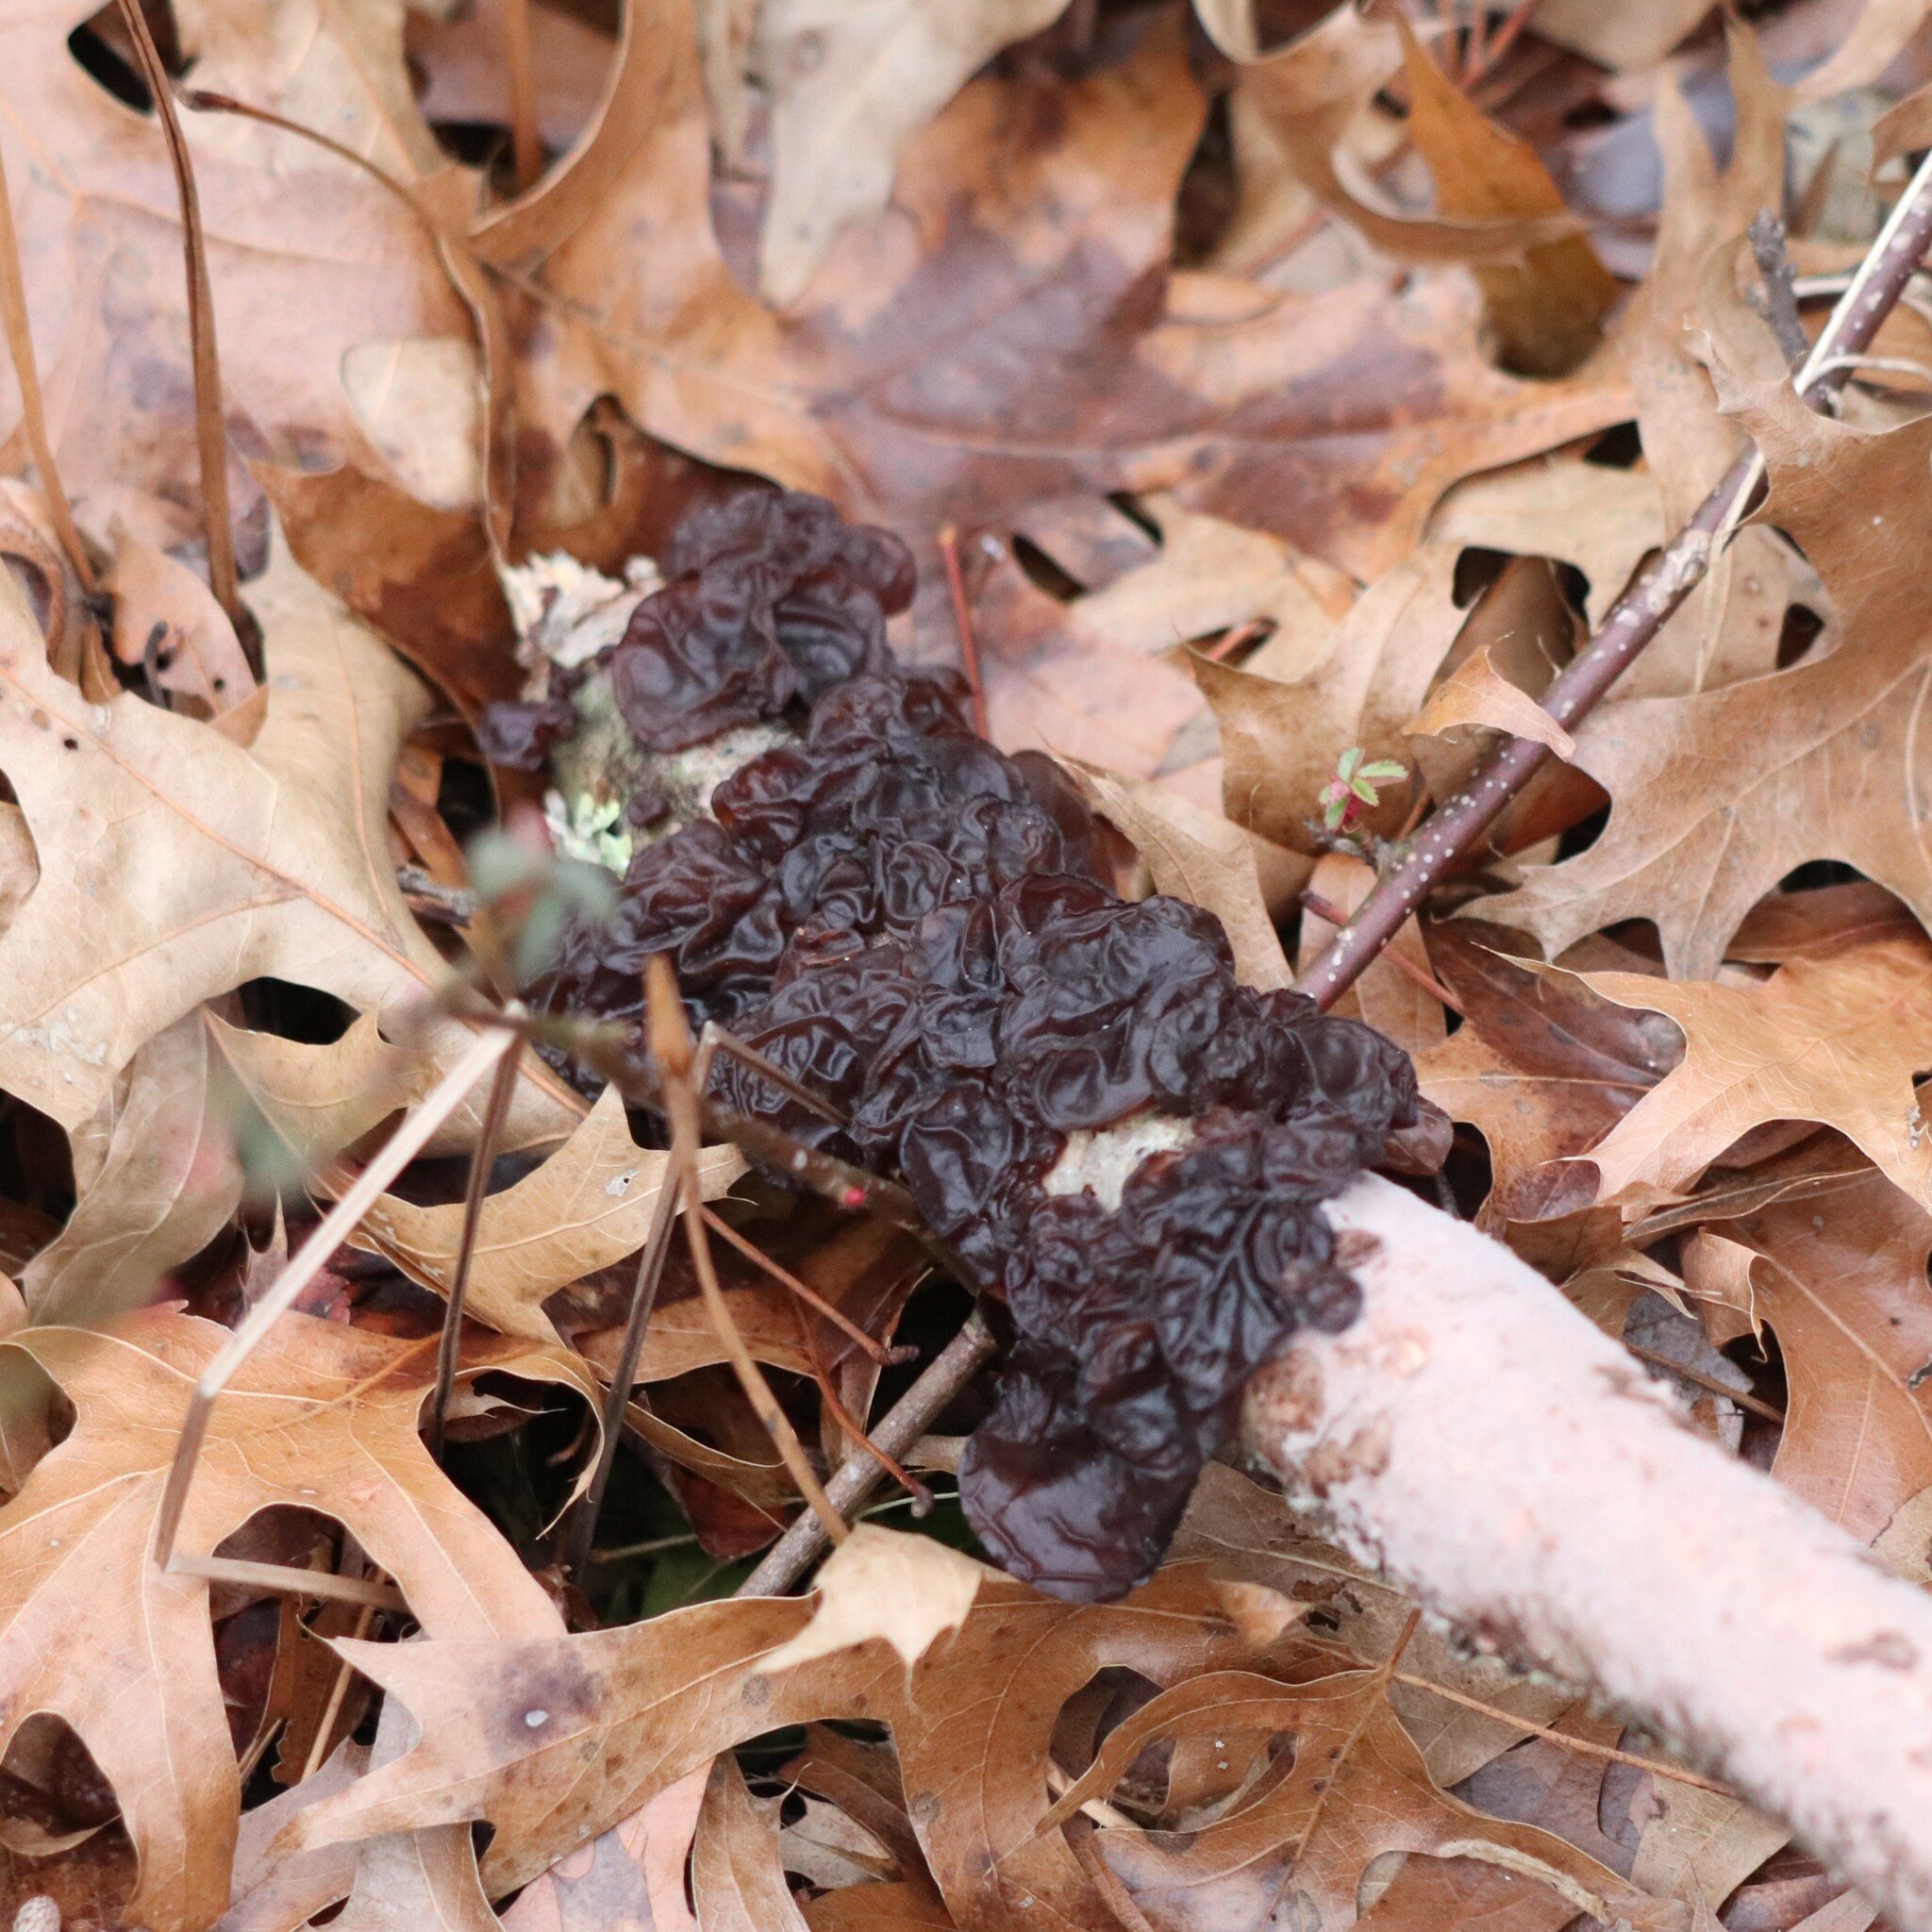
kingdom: Fungi
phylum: Basidiomycota
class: Agaricomycetes
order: Auriculariales
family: Auriculariaceae
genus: Exidia
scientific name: Exidia
